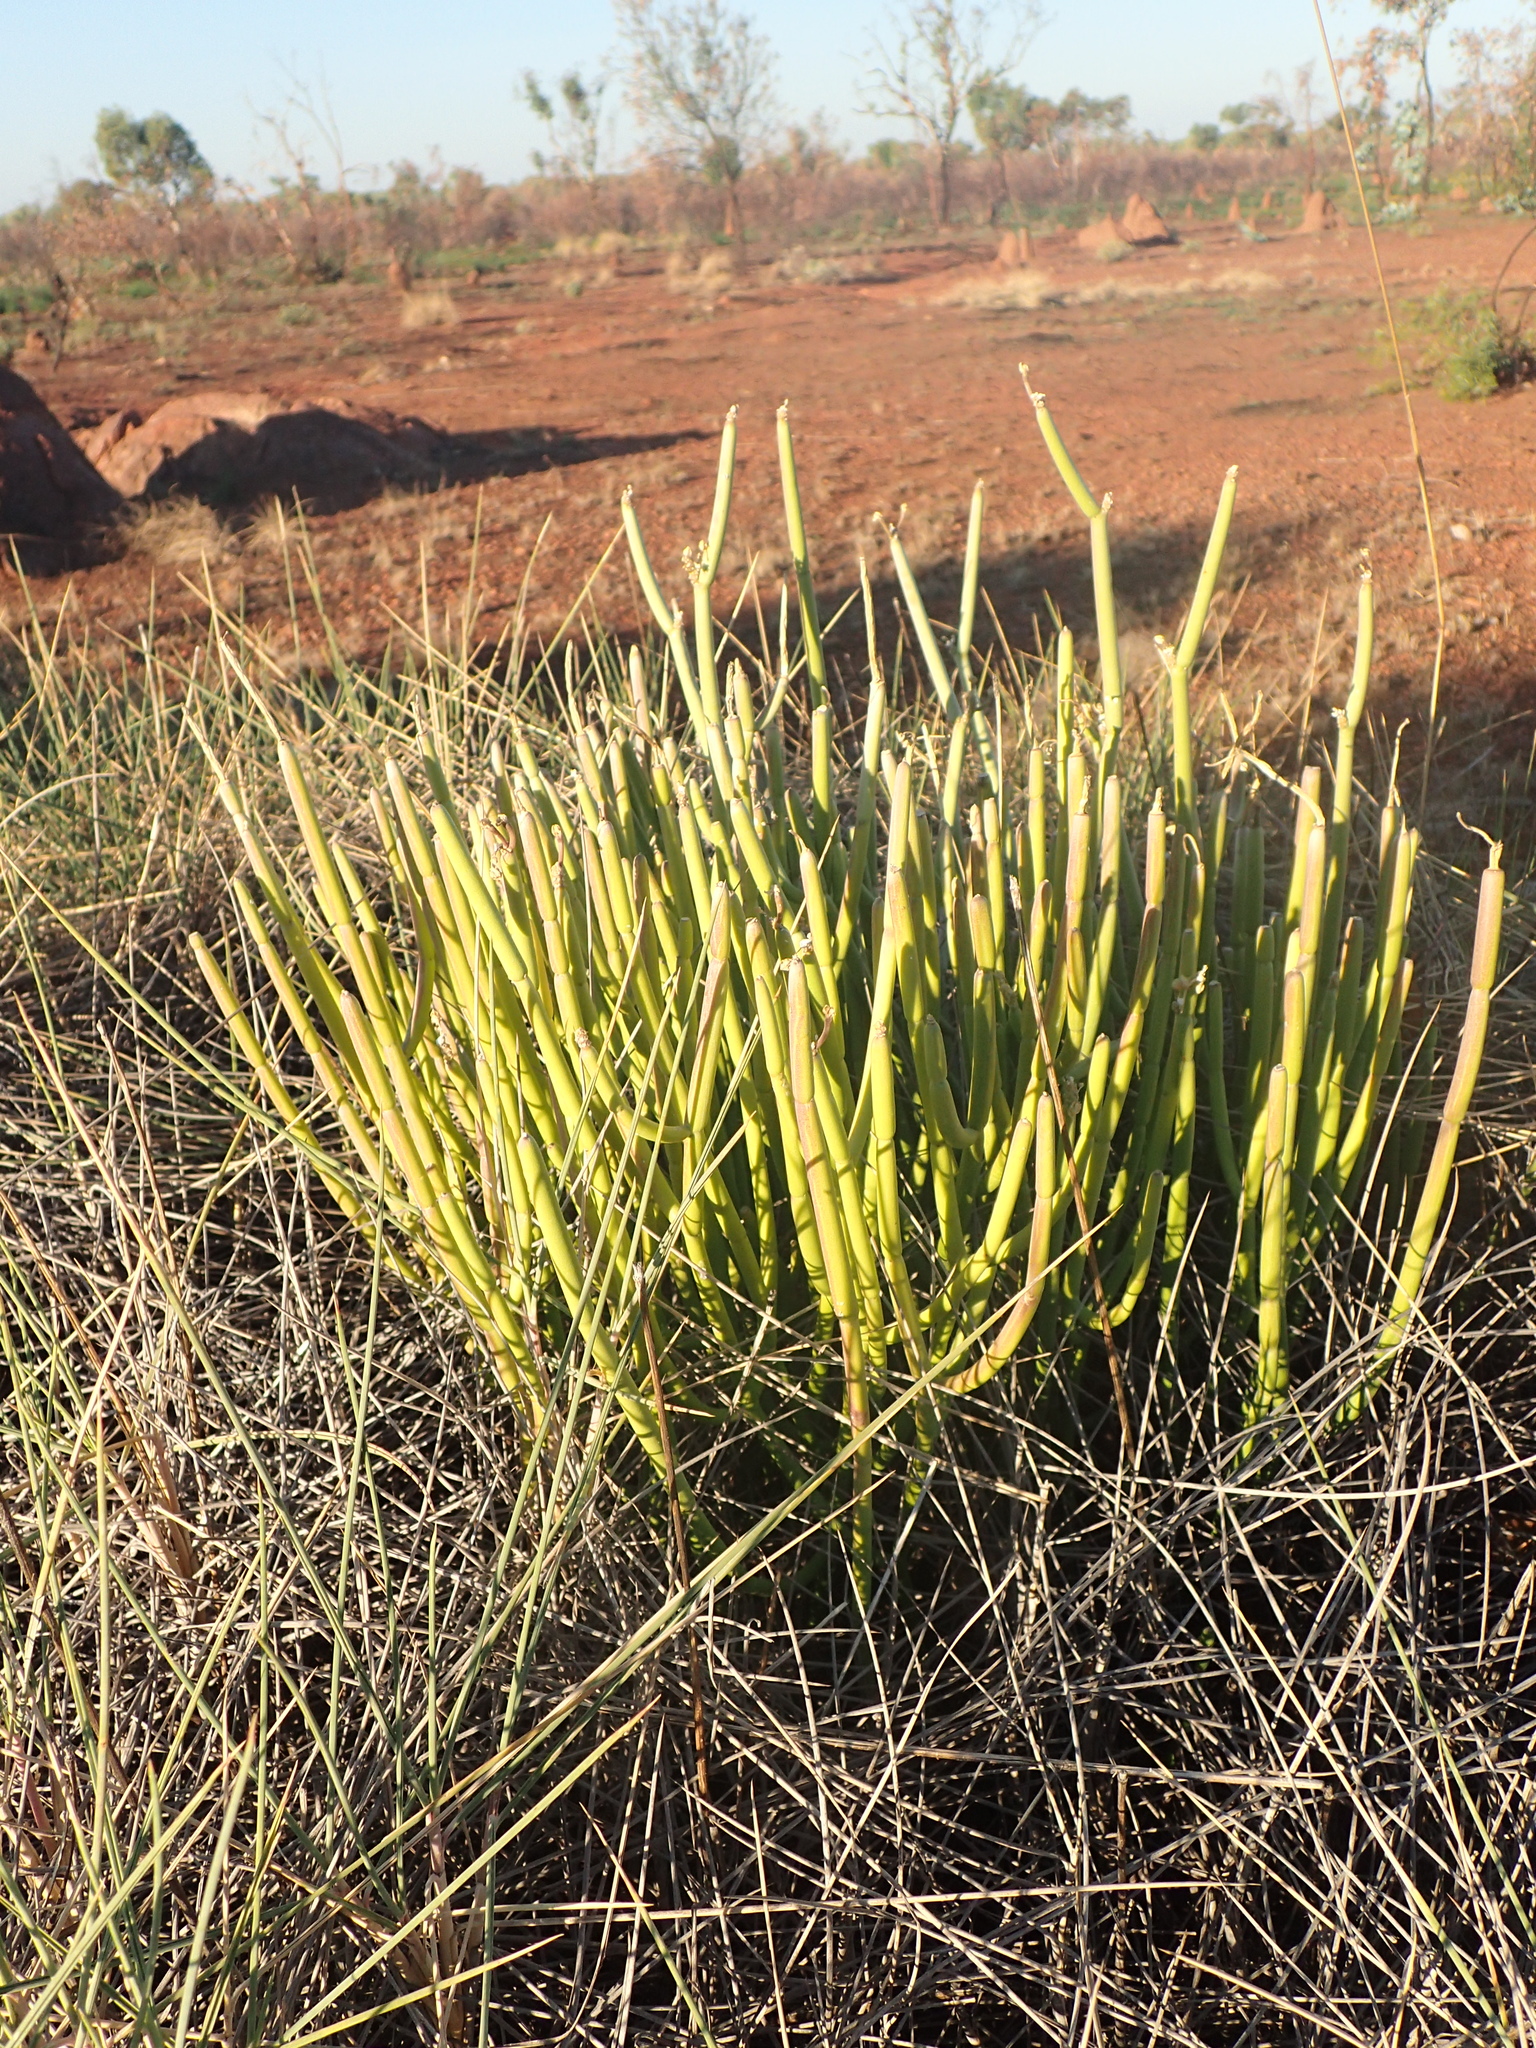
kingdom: Plantae
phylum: Tracheophyta
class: Magnoliopsida
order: Gentianales
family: Apocynaceae
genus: Cynanchum
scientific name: Cynanchum viminale
